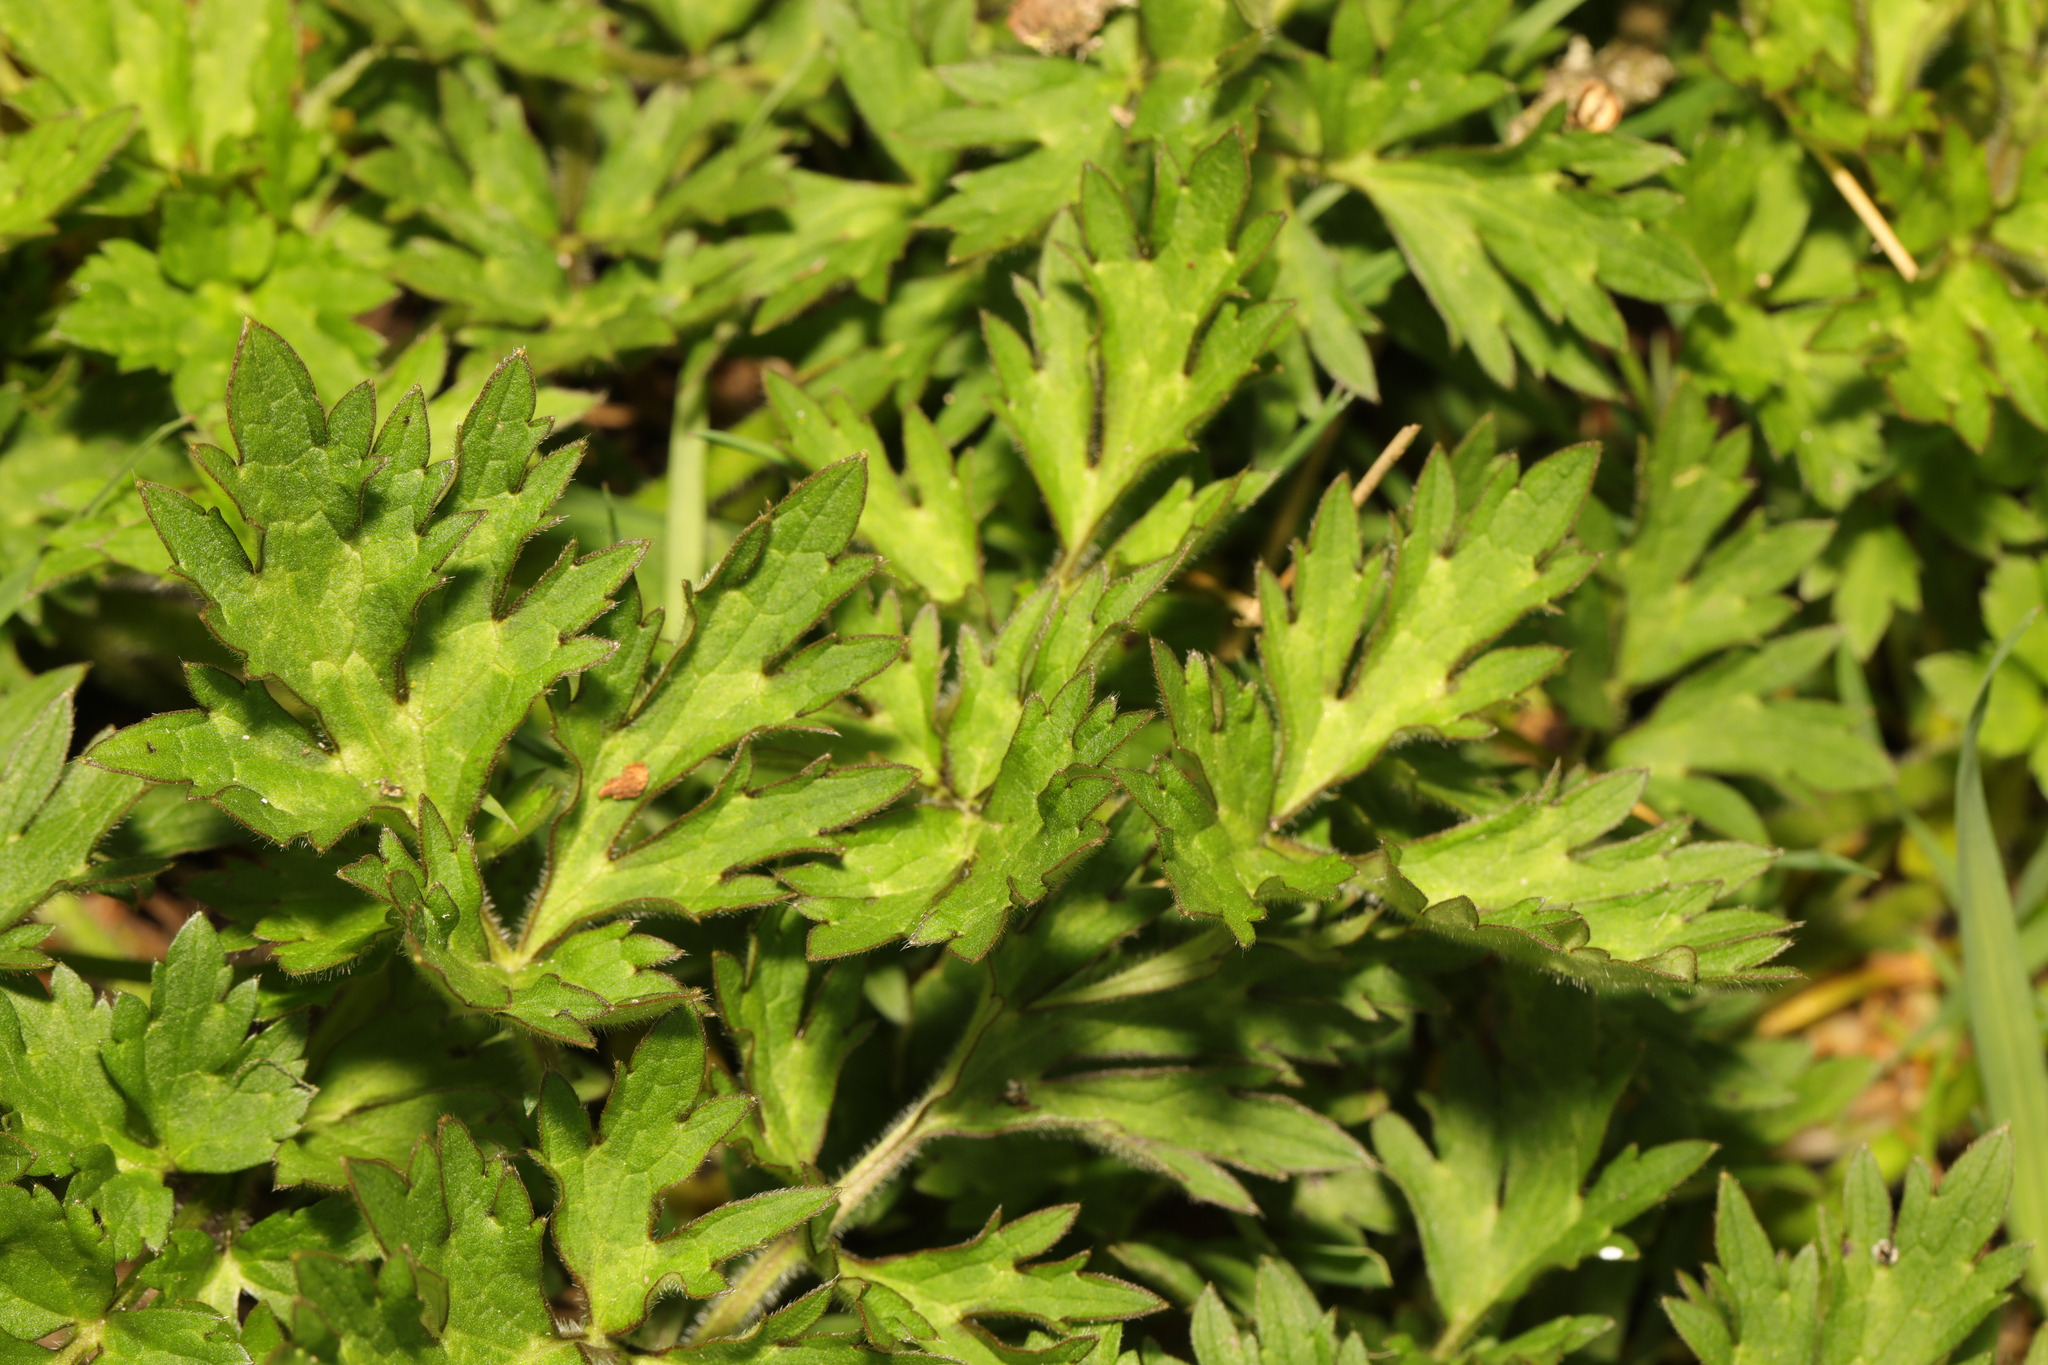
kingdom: Plantae
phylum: Tracheophyta
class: Magnoliopsida
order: Ranunculales
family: Ranunculaceae
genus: Ranunculus
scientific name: Ranunculus repens
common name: Creeping buttercup
